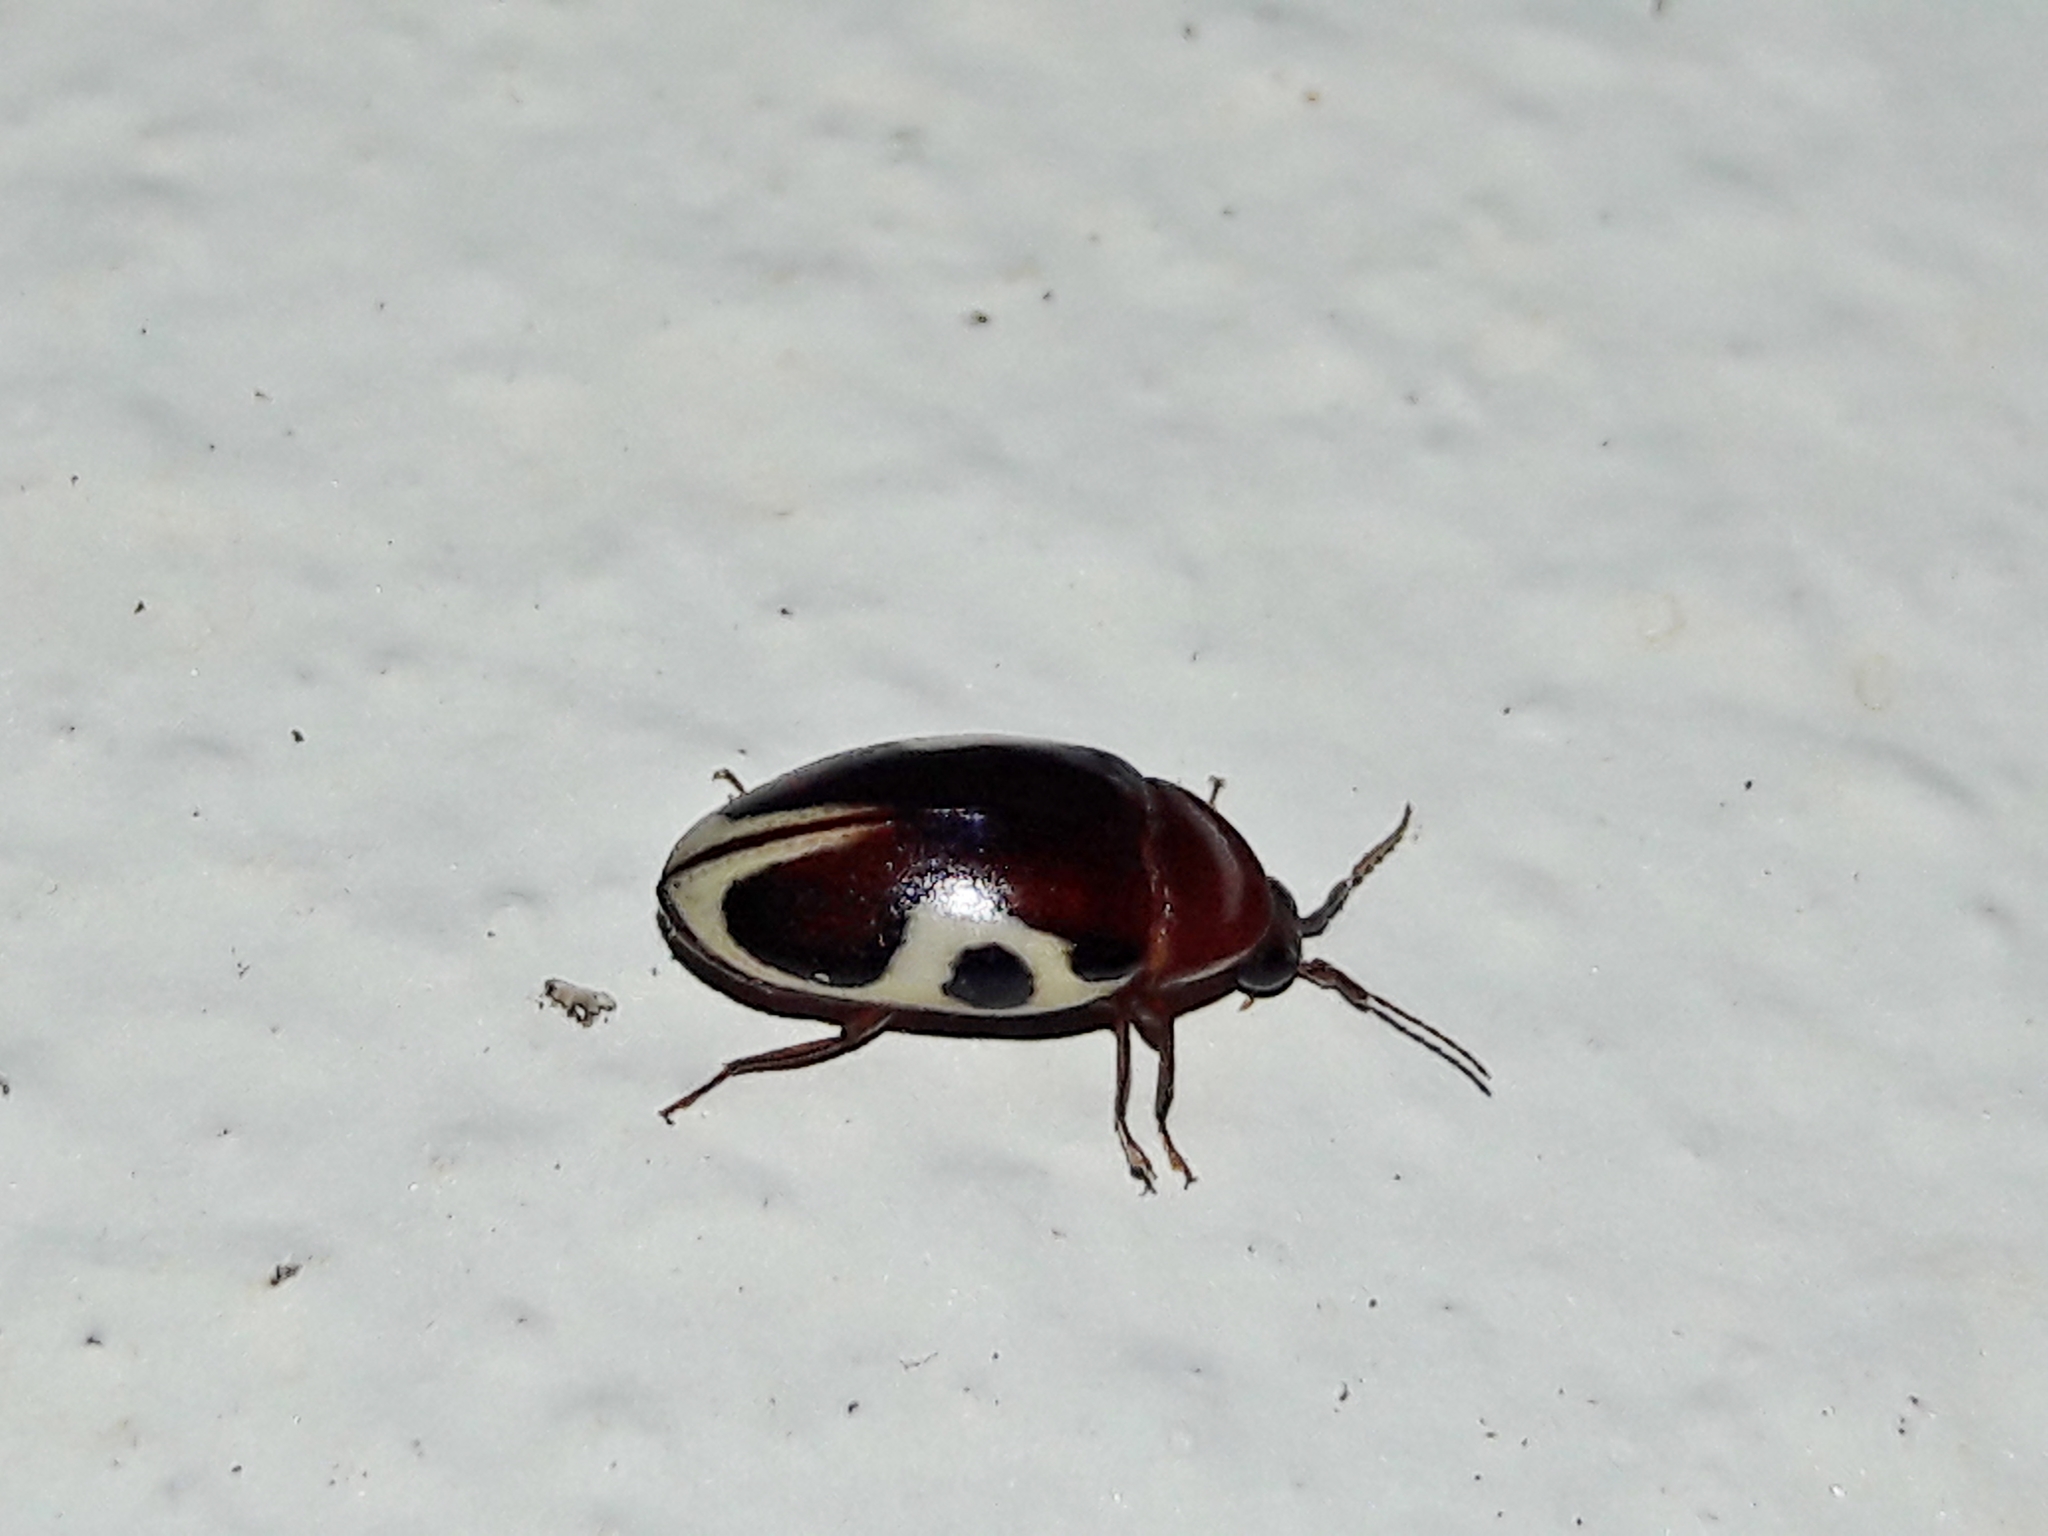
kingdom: Animalia
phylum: Arthropoda
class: Insecta
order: Coleoptera
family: Chelonariidae
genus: Chelonarium
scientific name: Chelonarium
